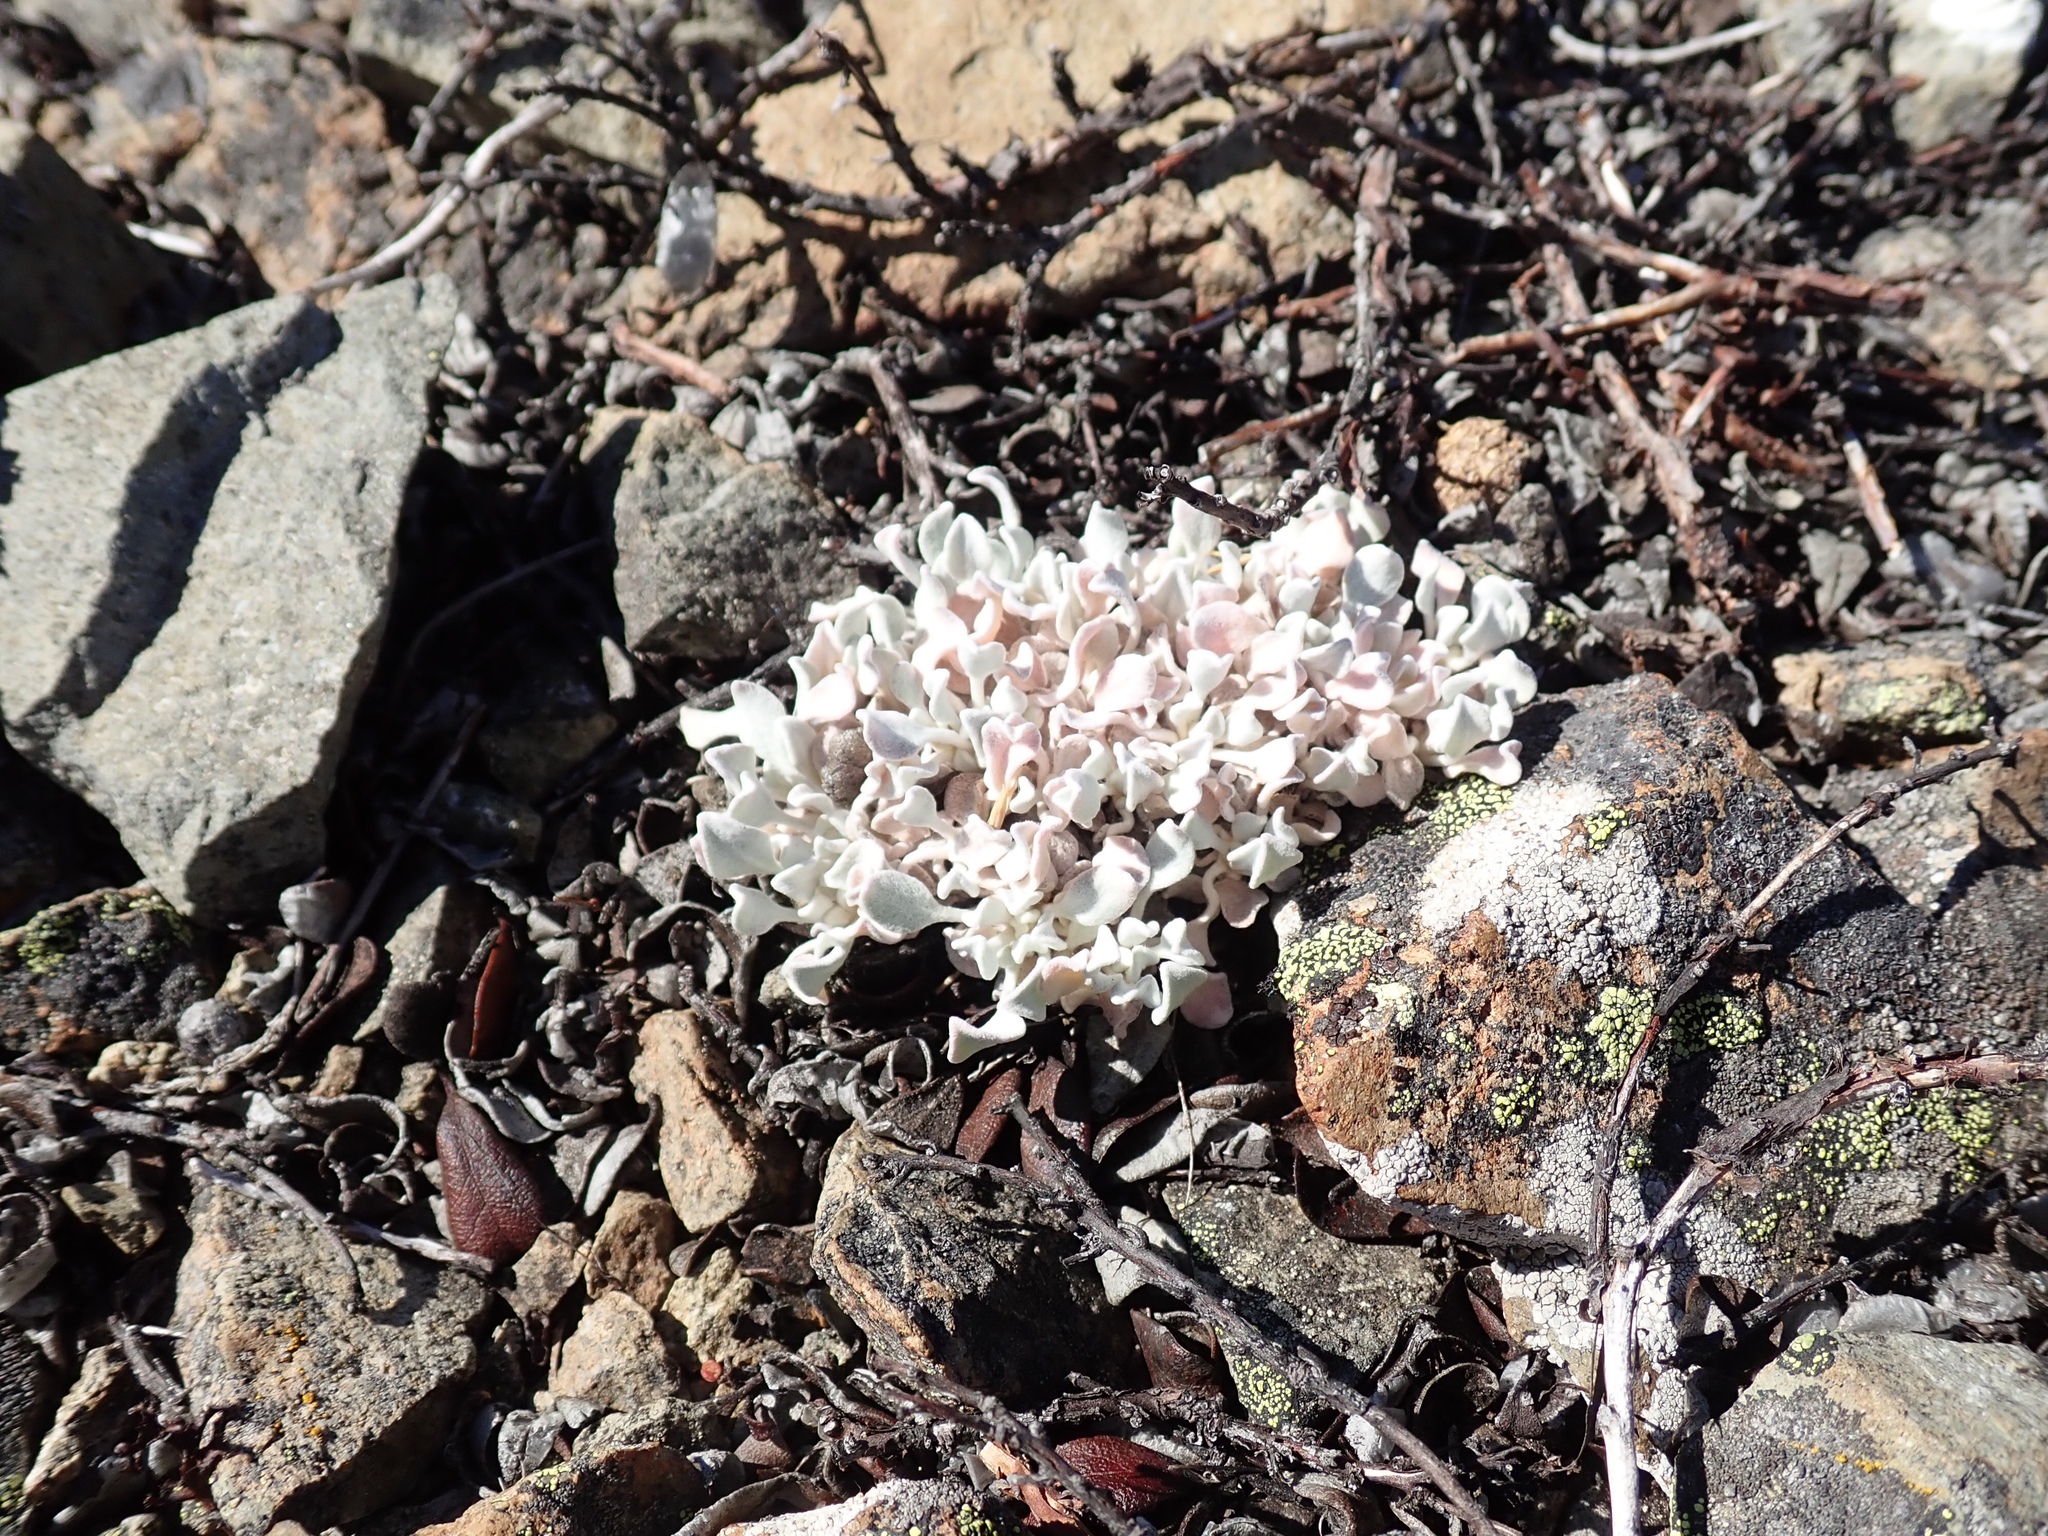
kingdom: Plantae
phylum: Tracheophyta
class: Magnoliopsida
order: Caryophyllales
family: Polygonaceae
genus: Eriogonum
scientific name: Eriogonum ovalifolium
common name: Cushion buckwheat
